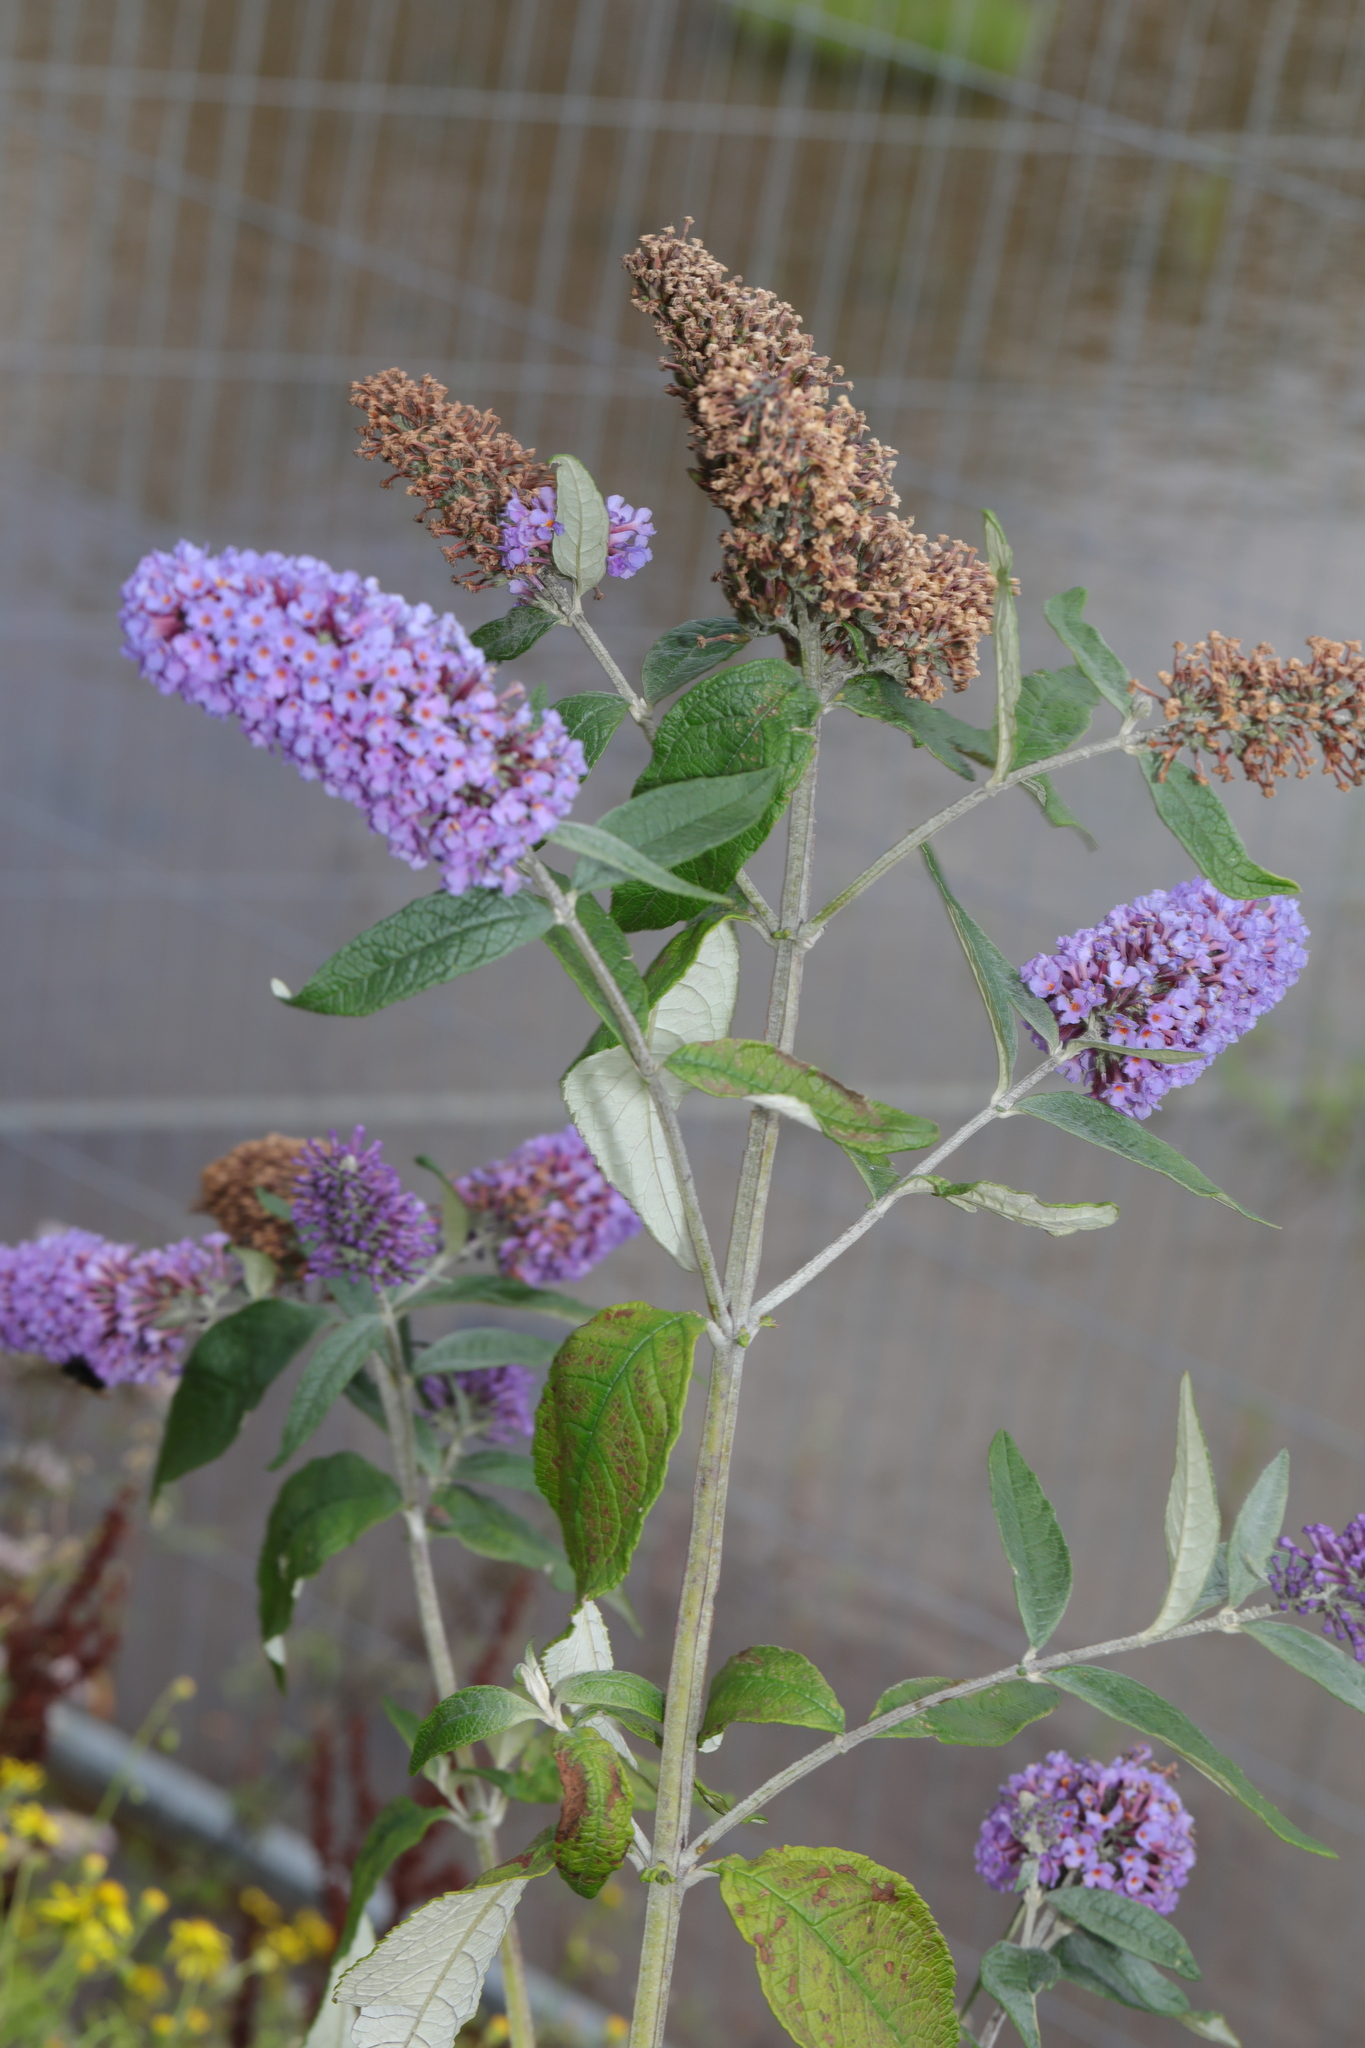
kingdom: Plantae
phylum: Tracheophyta
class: Magnoliopsida
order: Lamiales
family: Scrophulariaceae
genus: Buddleja
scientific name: Buddleja davidii
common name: Butterfly-bush
